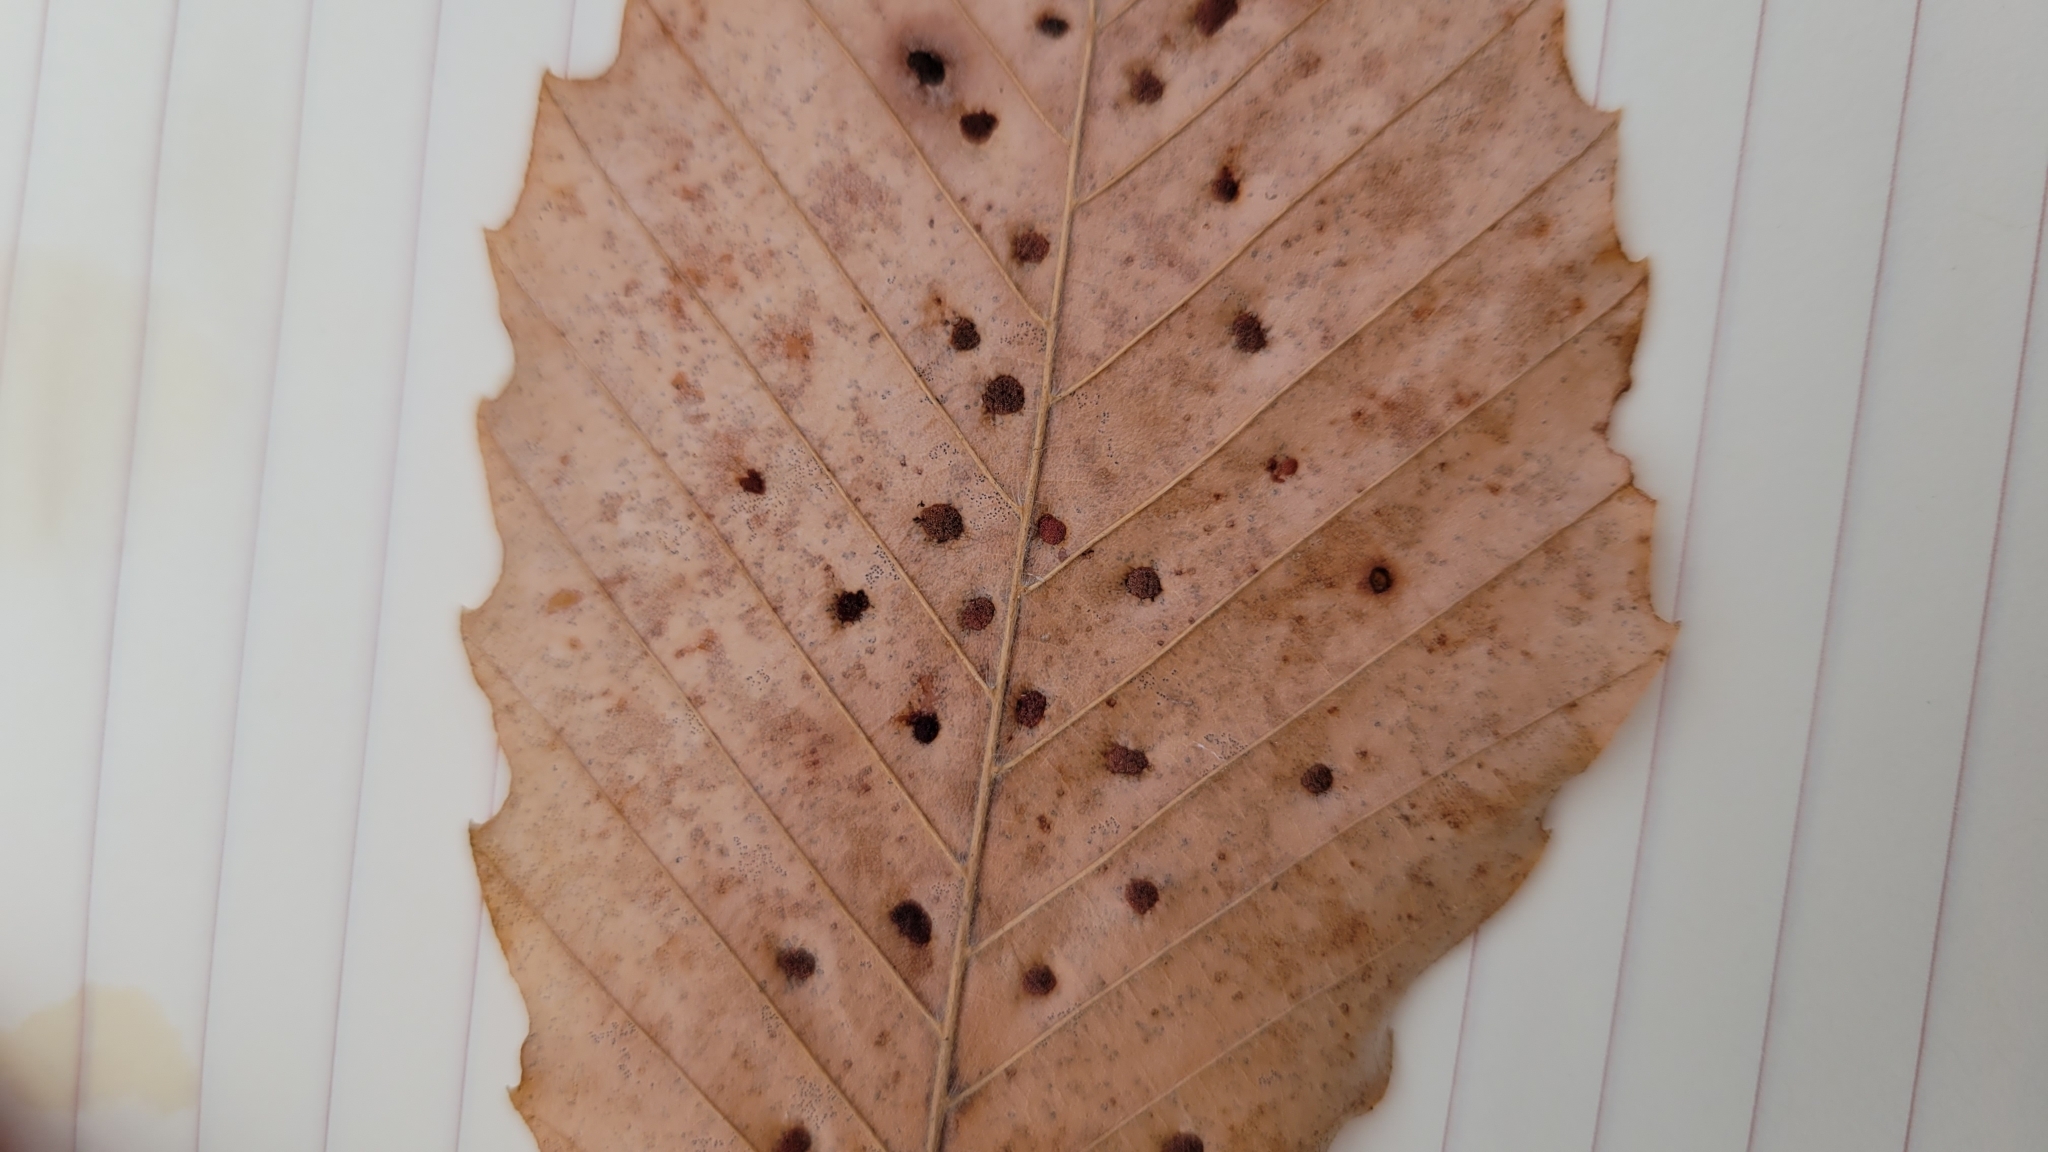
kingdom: Animalia
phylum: Arthropoda
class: Arachnida
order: Trombidiformes
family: Eriophyidae
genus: Acalitus
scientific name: Acalitus
